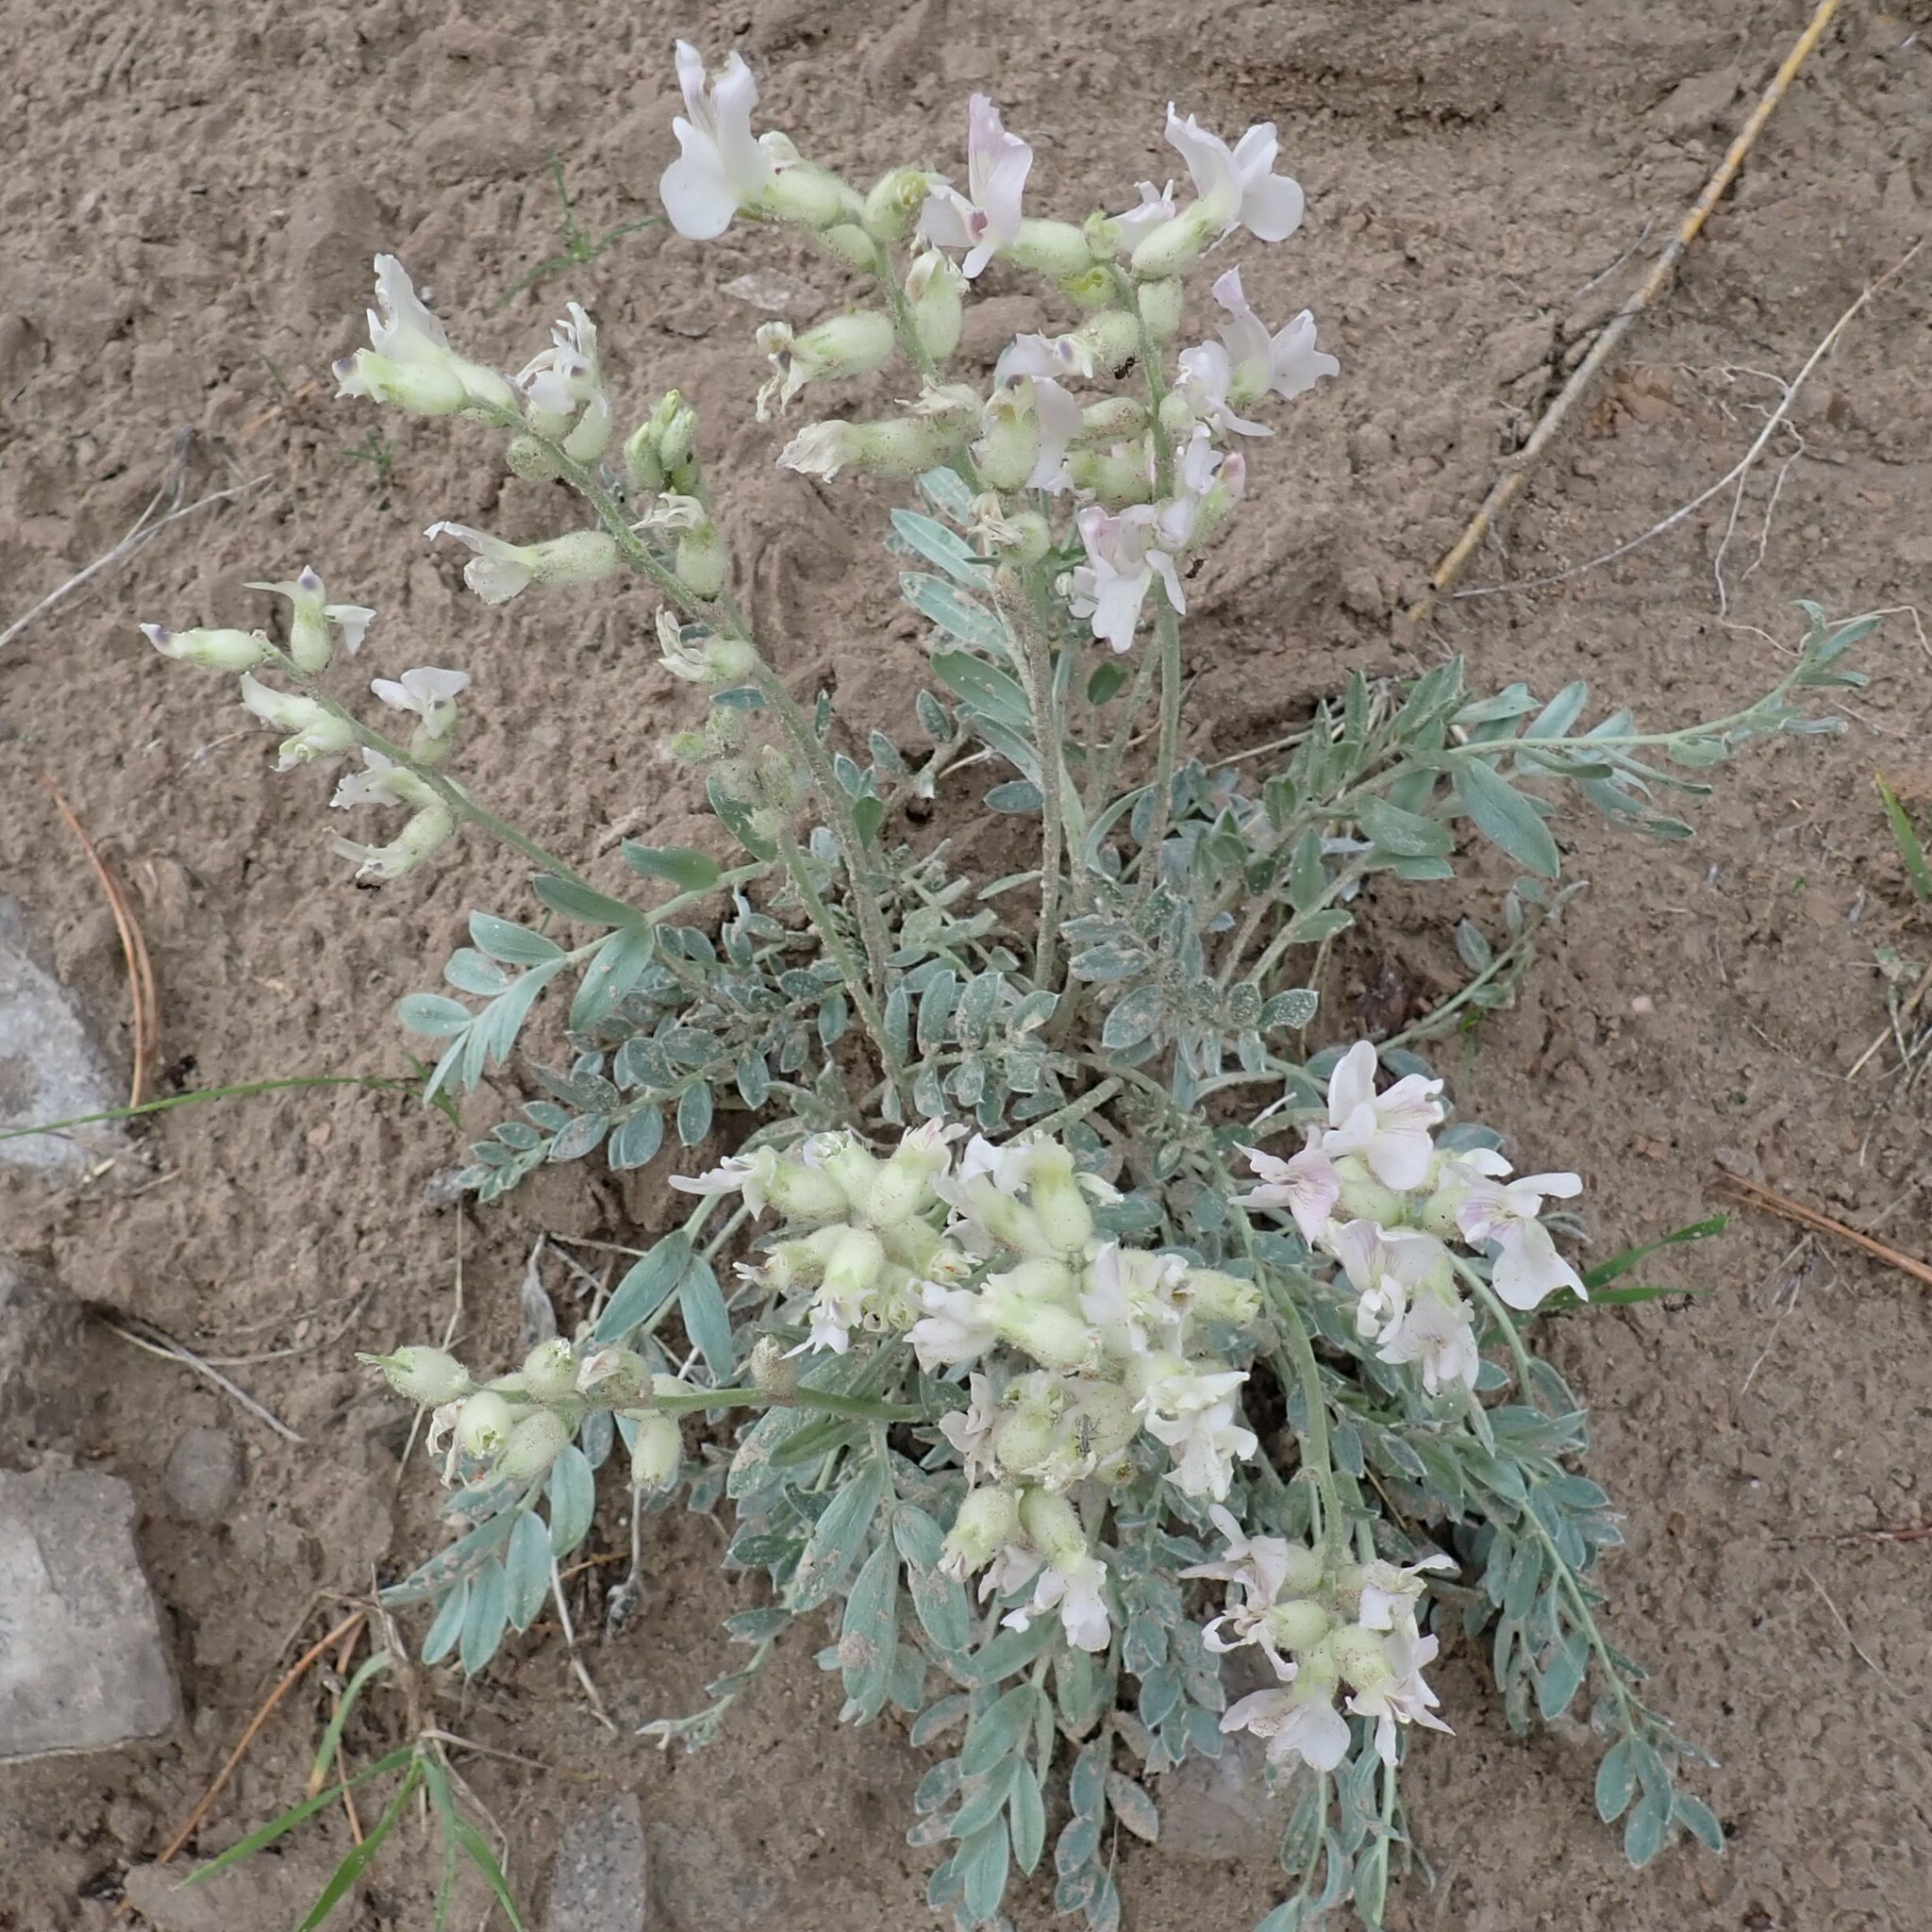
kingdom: Plantae
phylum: Tracheophyta
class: Magnoliopsida
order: Fabales
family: Fabaceae
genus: Oxytropis
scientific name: Oxytropis sericea
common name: Silky locoweed
